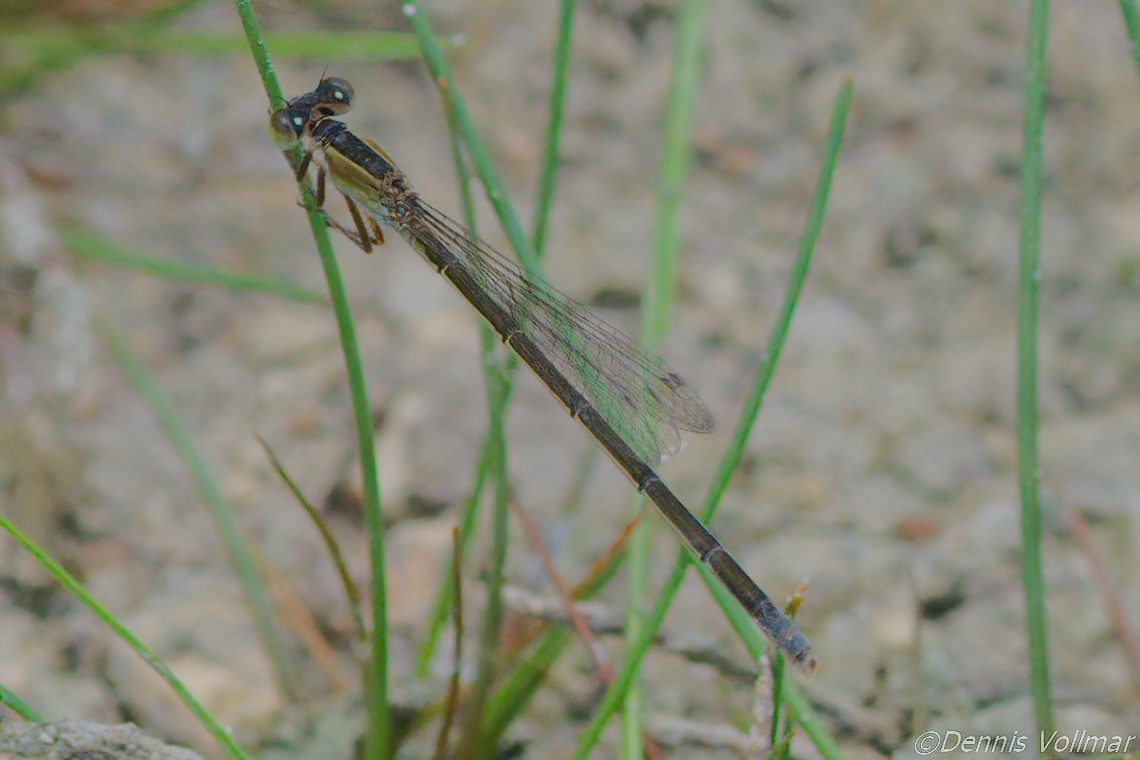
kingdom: Animalia
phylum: Arthropoda
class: Insecta
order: Odonata
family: Coenagrionidae
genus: Ischnura
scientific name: Ischnura ramburii
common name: Rambur's forktail
